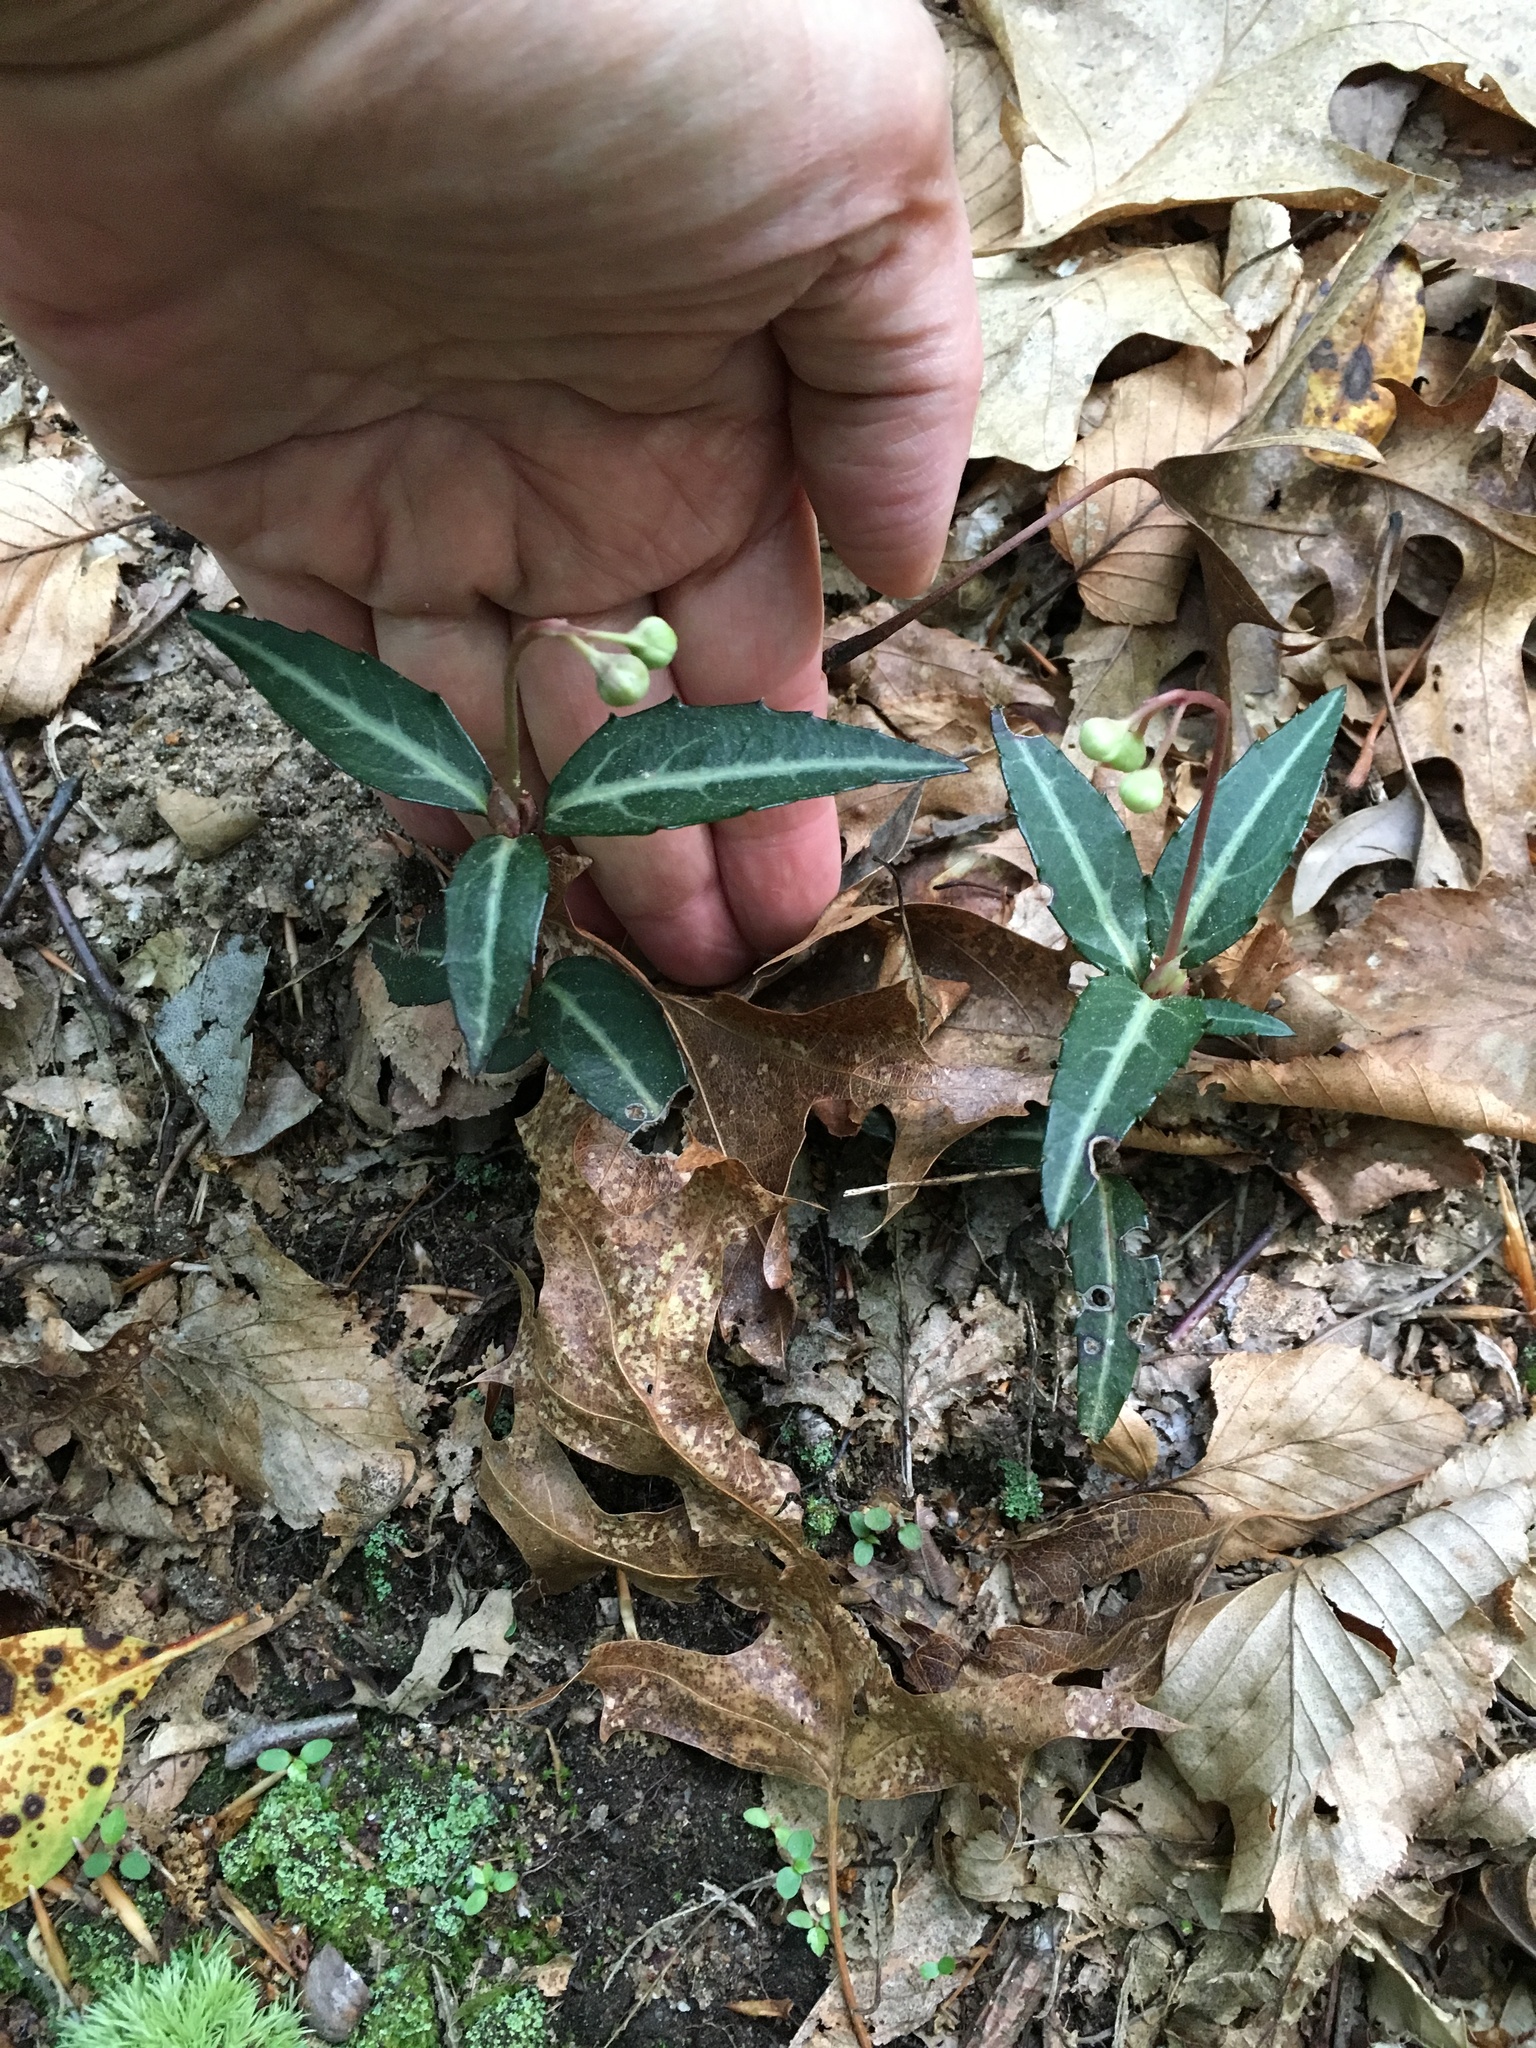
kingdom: Plantae
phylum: Tracheophyta
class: Magnoliopsida
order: Ericales
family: Ericaceae
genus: Chimaphila
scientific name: Chimaphila maculata
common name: Spotted pipsissewa
